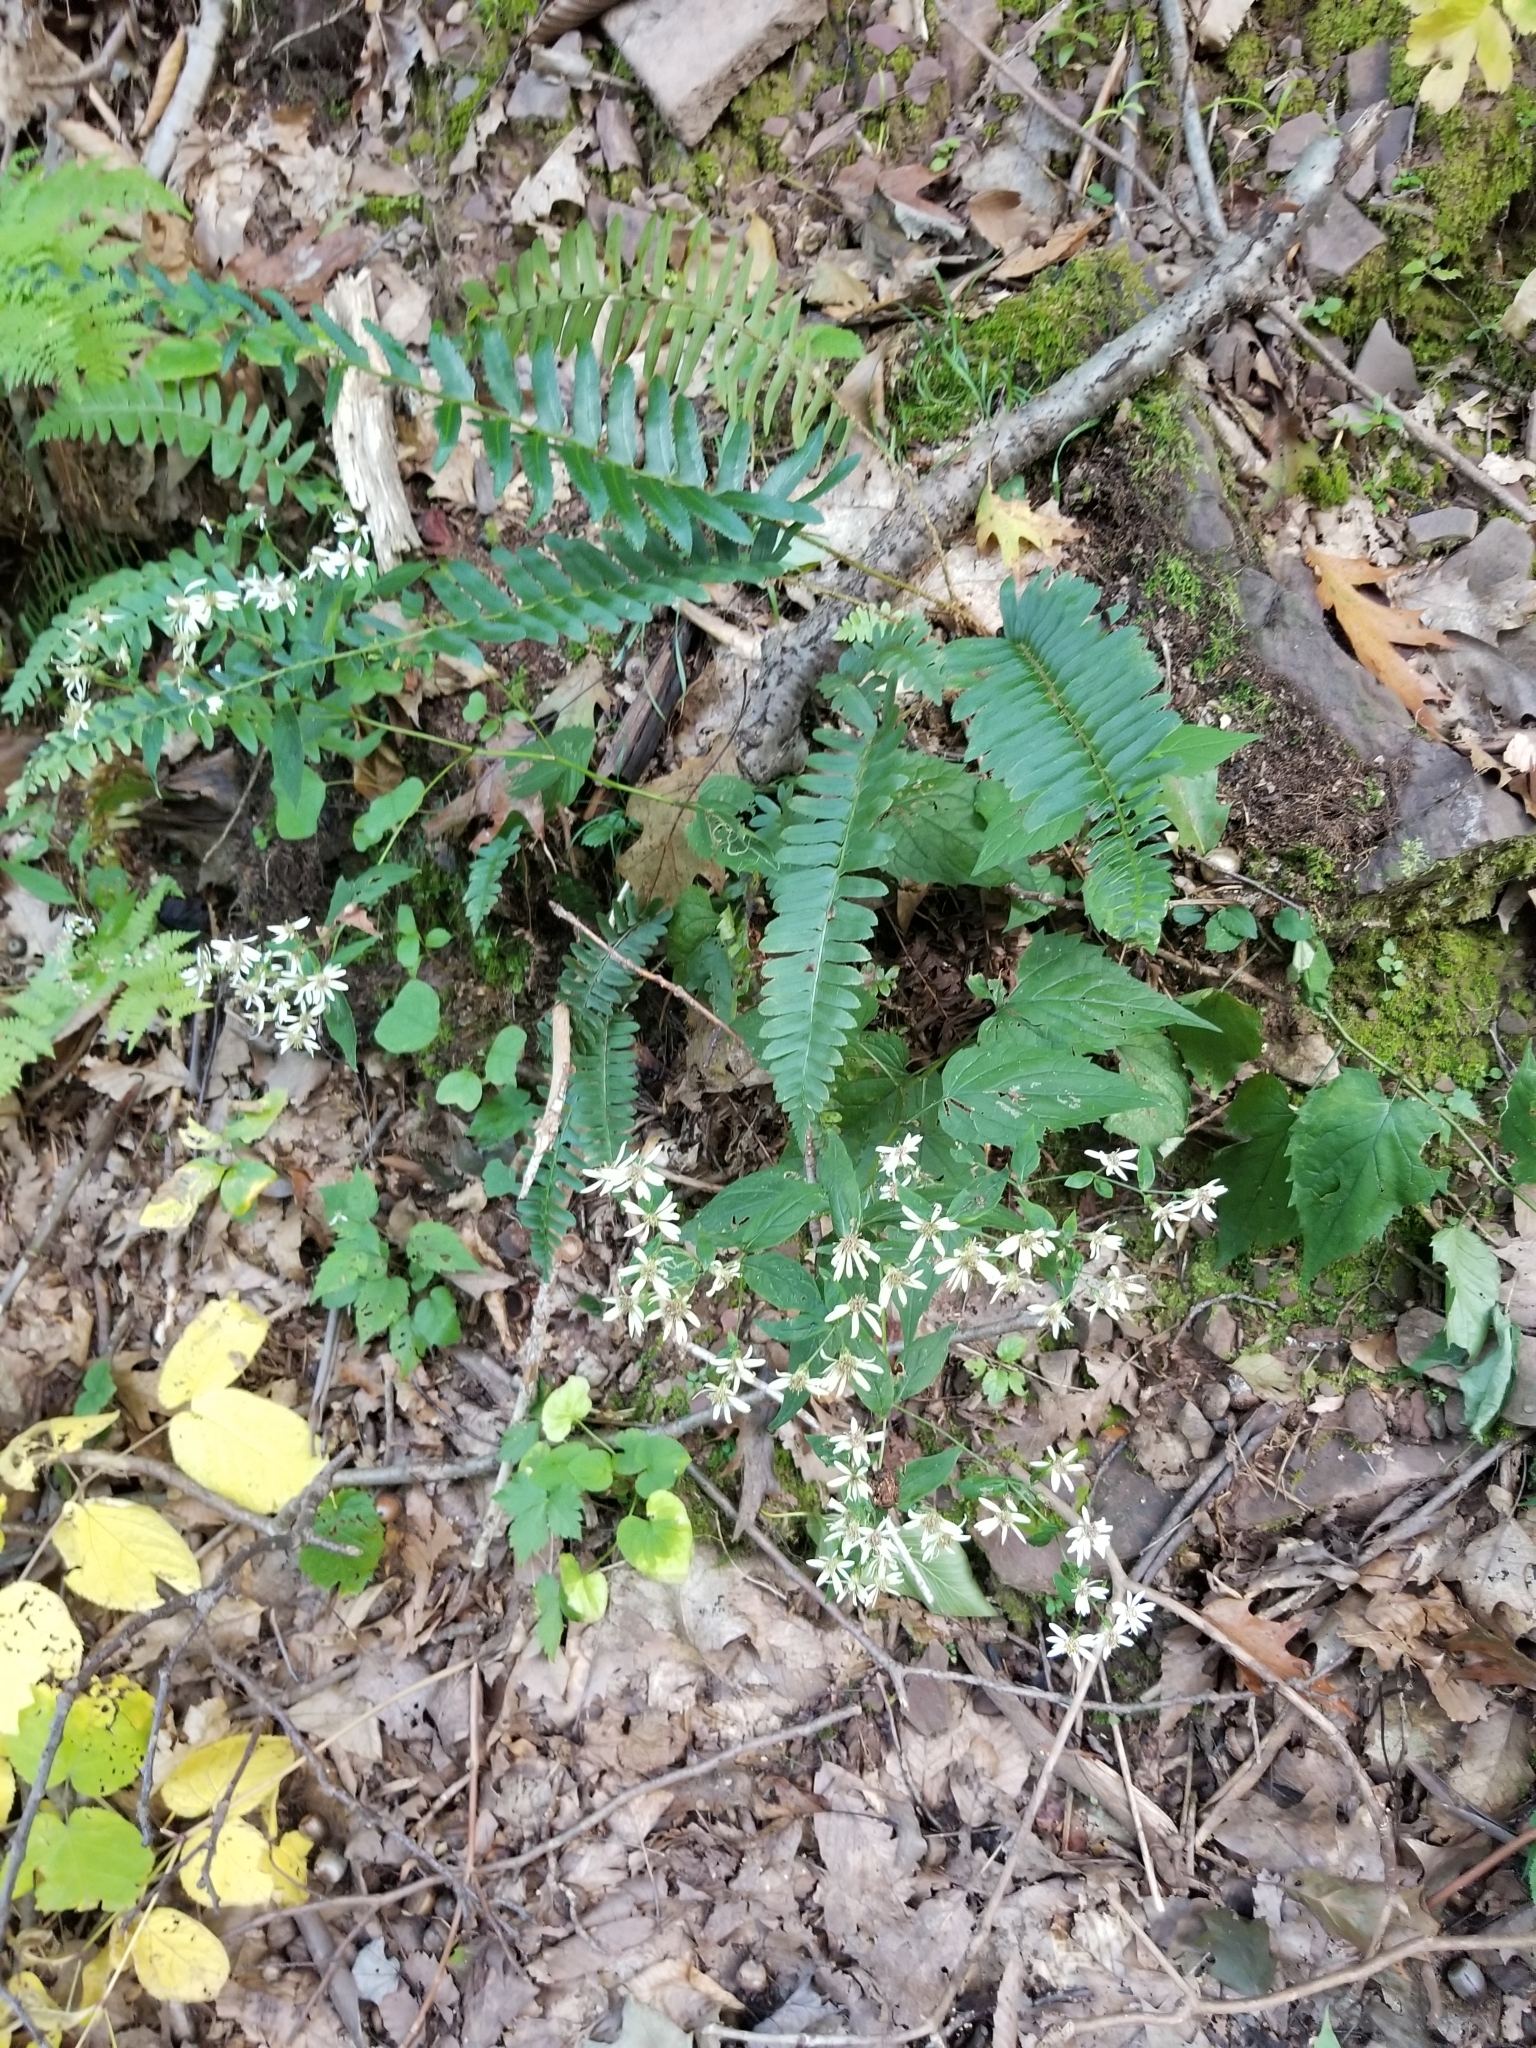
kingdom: Plantae
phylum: Tracheophyta
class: Polypodiopsida
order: Polypodiales
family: Dryopteridaceae
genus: Polystichum
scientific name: Polystichum acrostichoides
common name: Christmas fern
